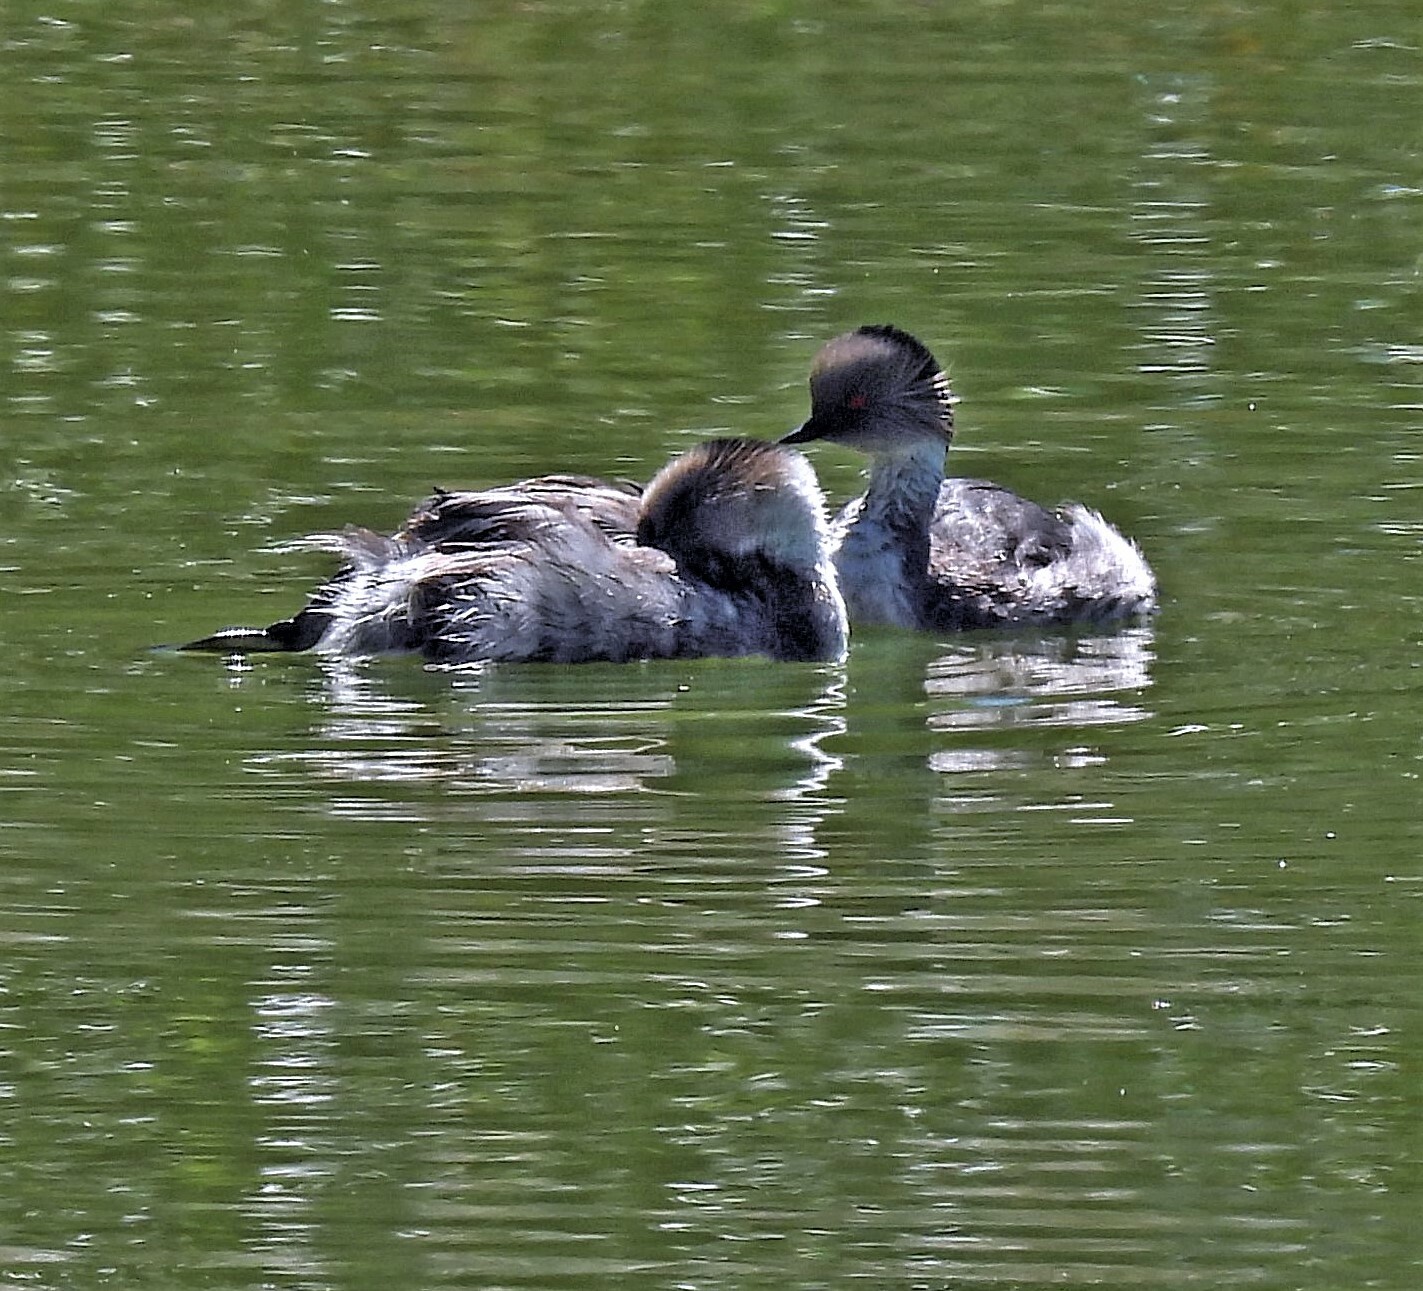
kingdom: Animalia
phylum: Chordata
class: Aves
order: Podicipediformes
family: Podicipedidae
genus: Podiceps
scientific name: Podiceps occipitalis
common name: Silvery grebe
